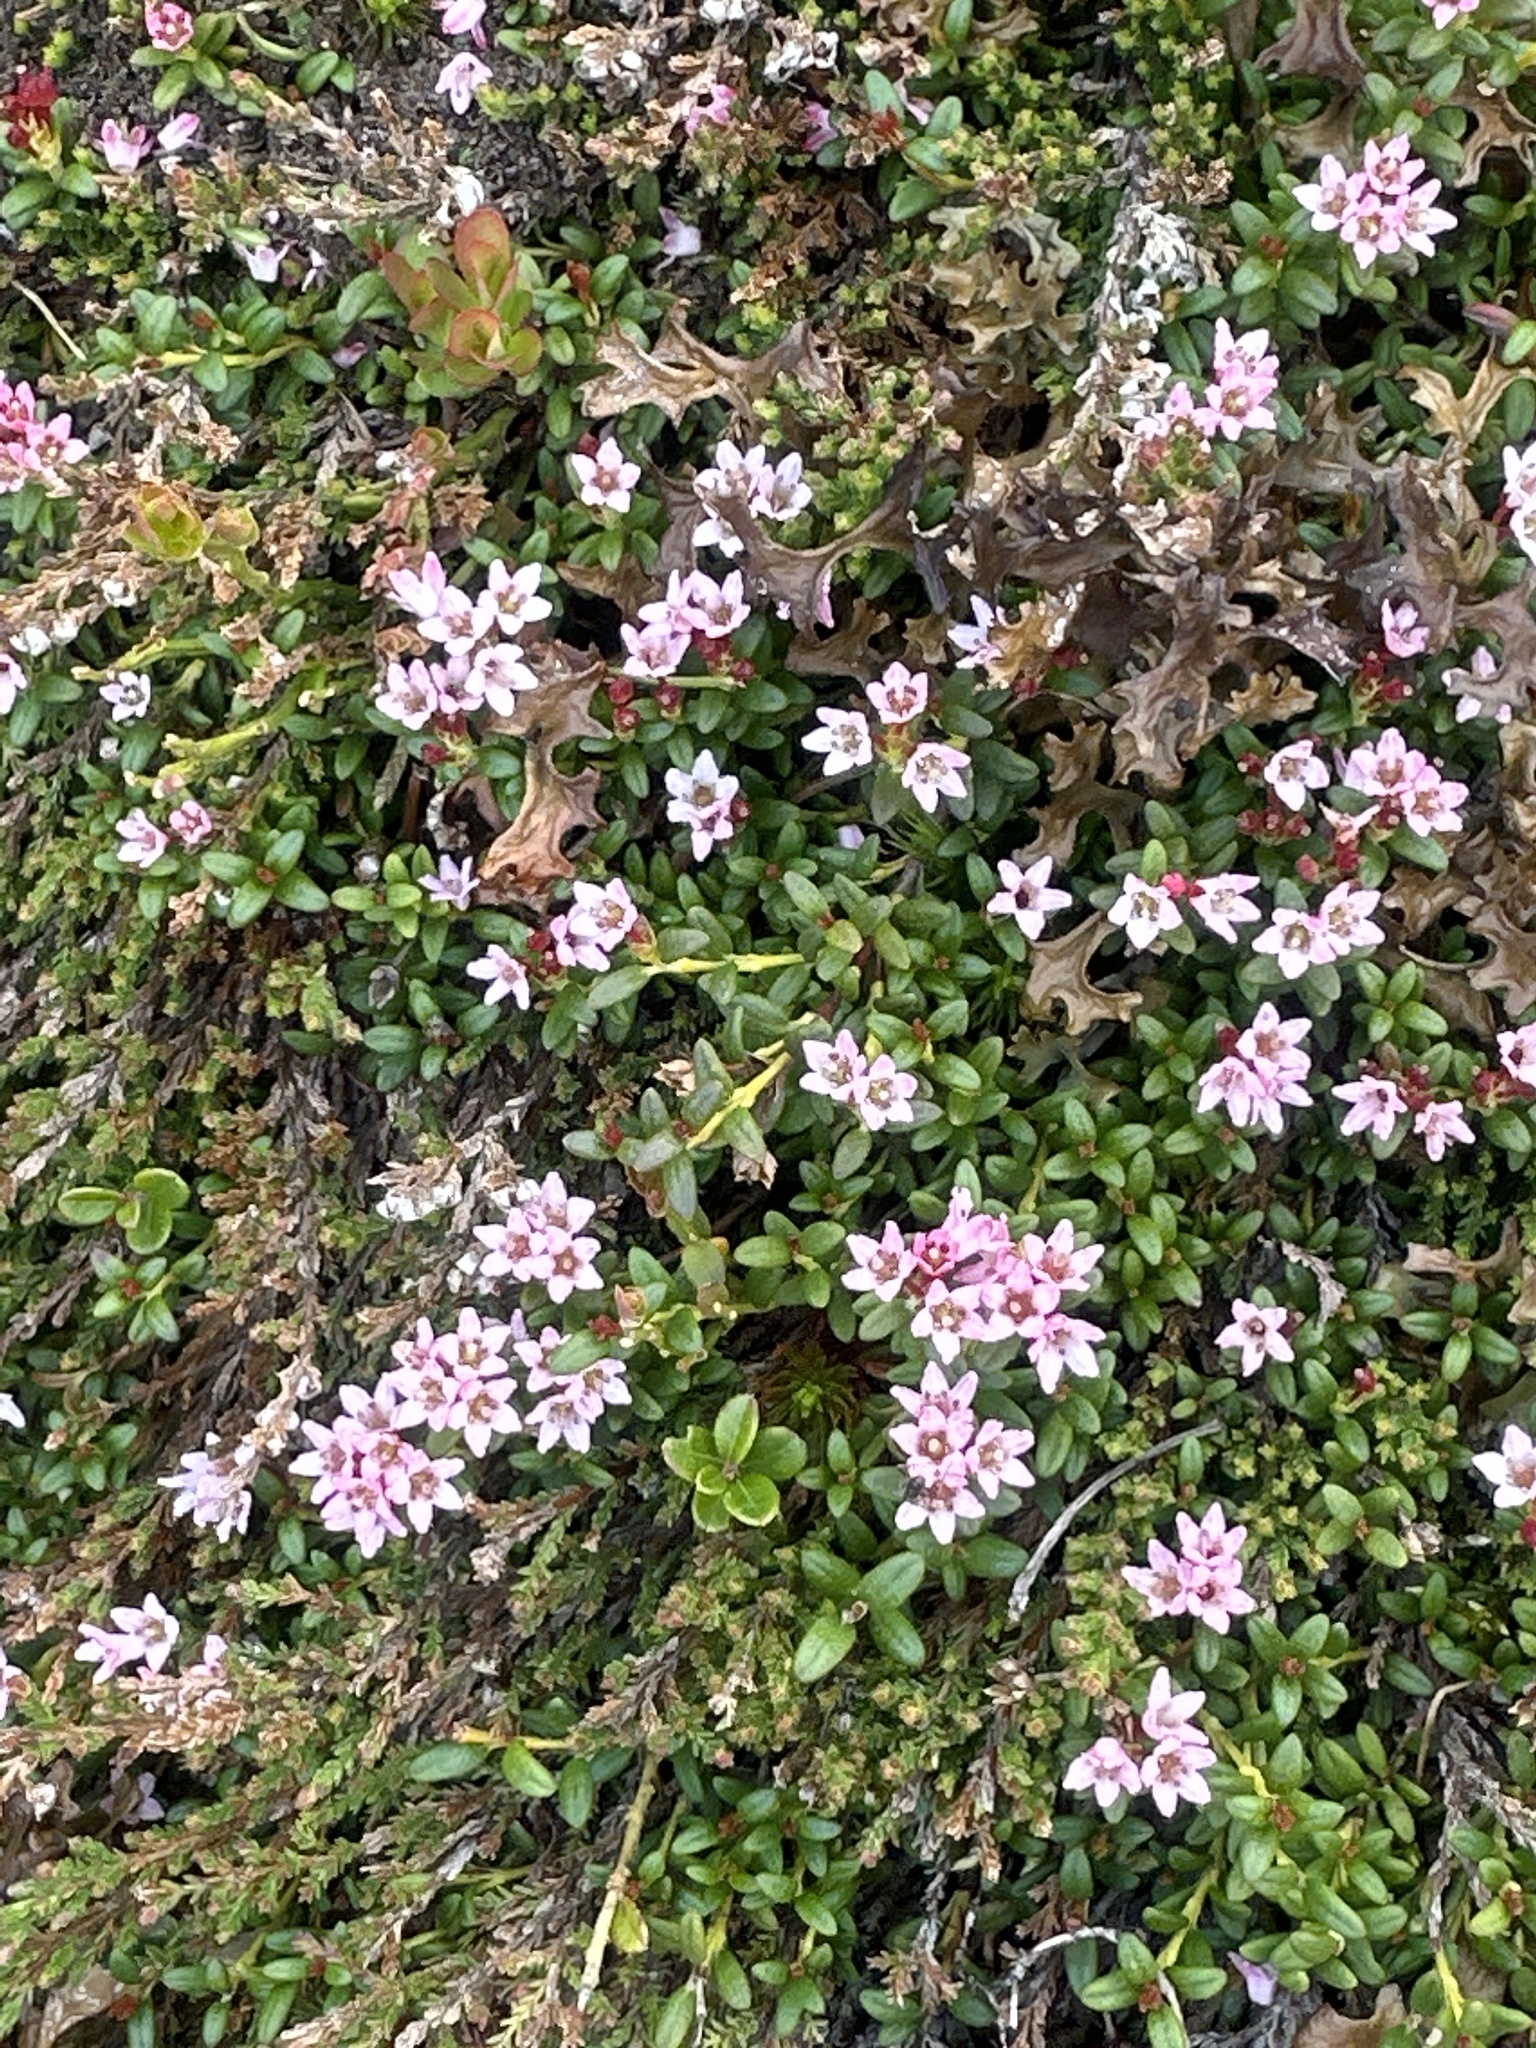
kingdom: Plantae
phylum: Tracheophyta
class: Magnoliopsida
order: Ericales
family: Ericaceae
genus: Kalmia
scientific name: Kalmia procumbens
